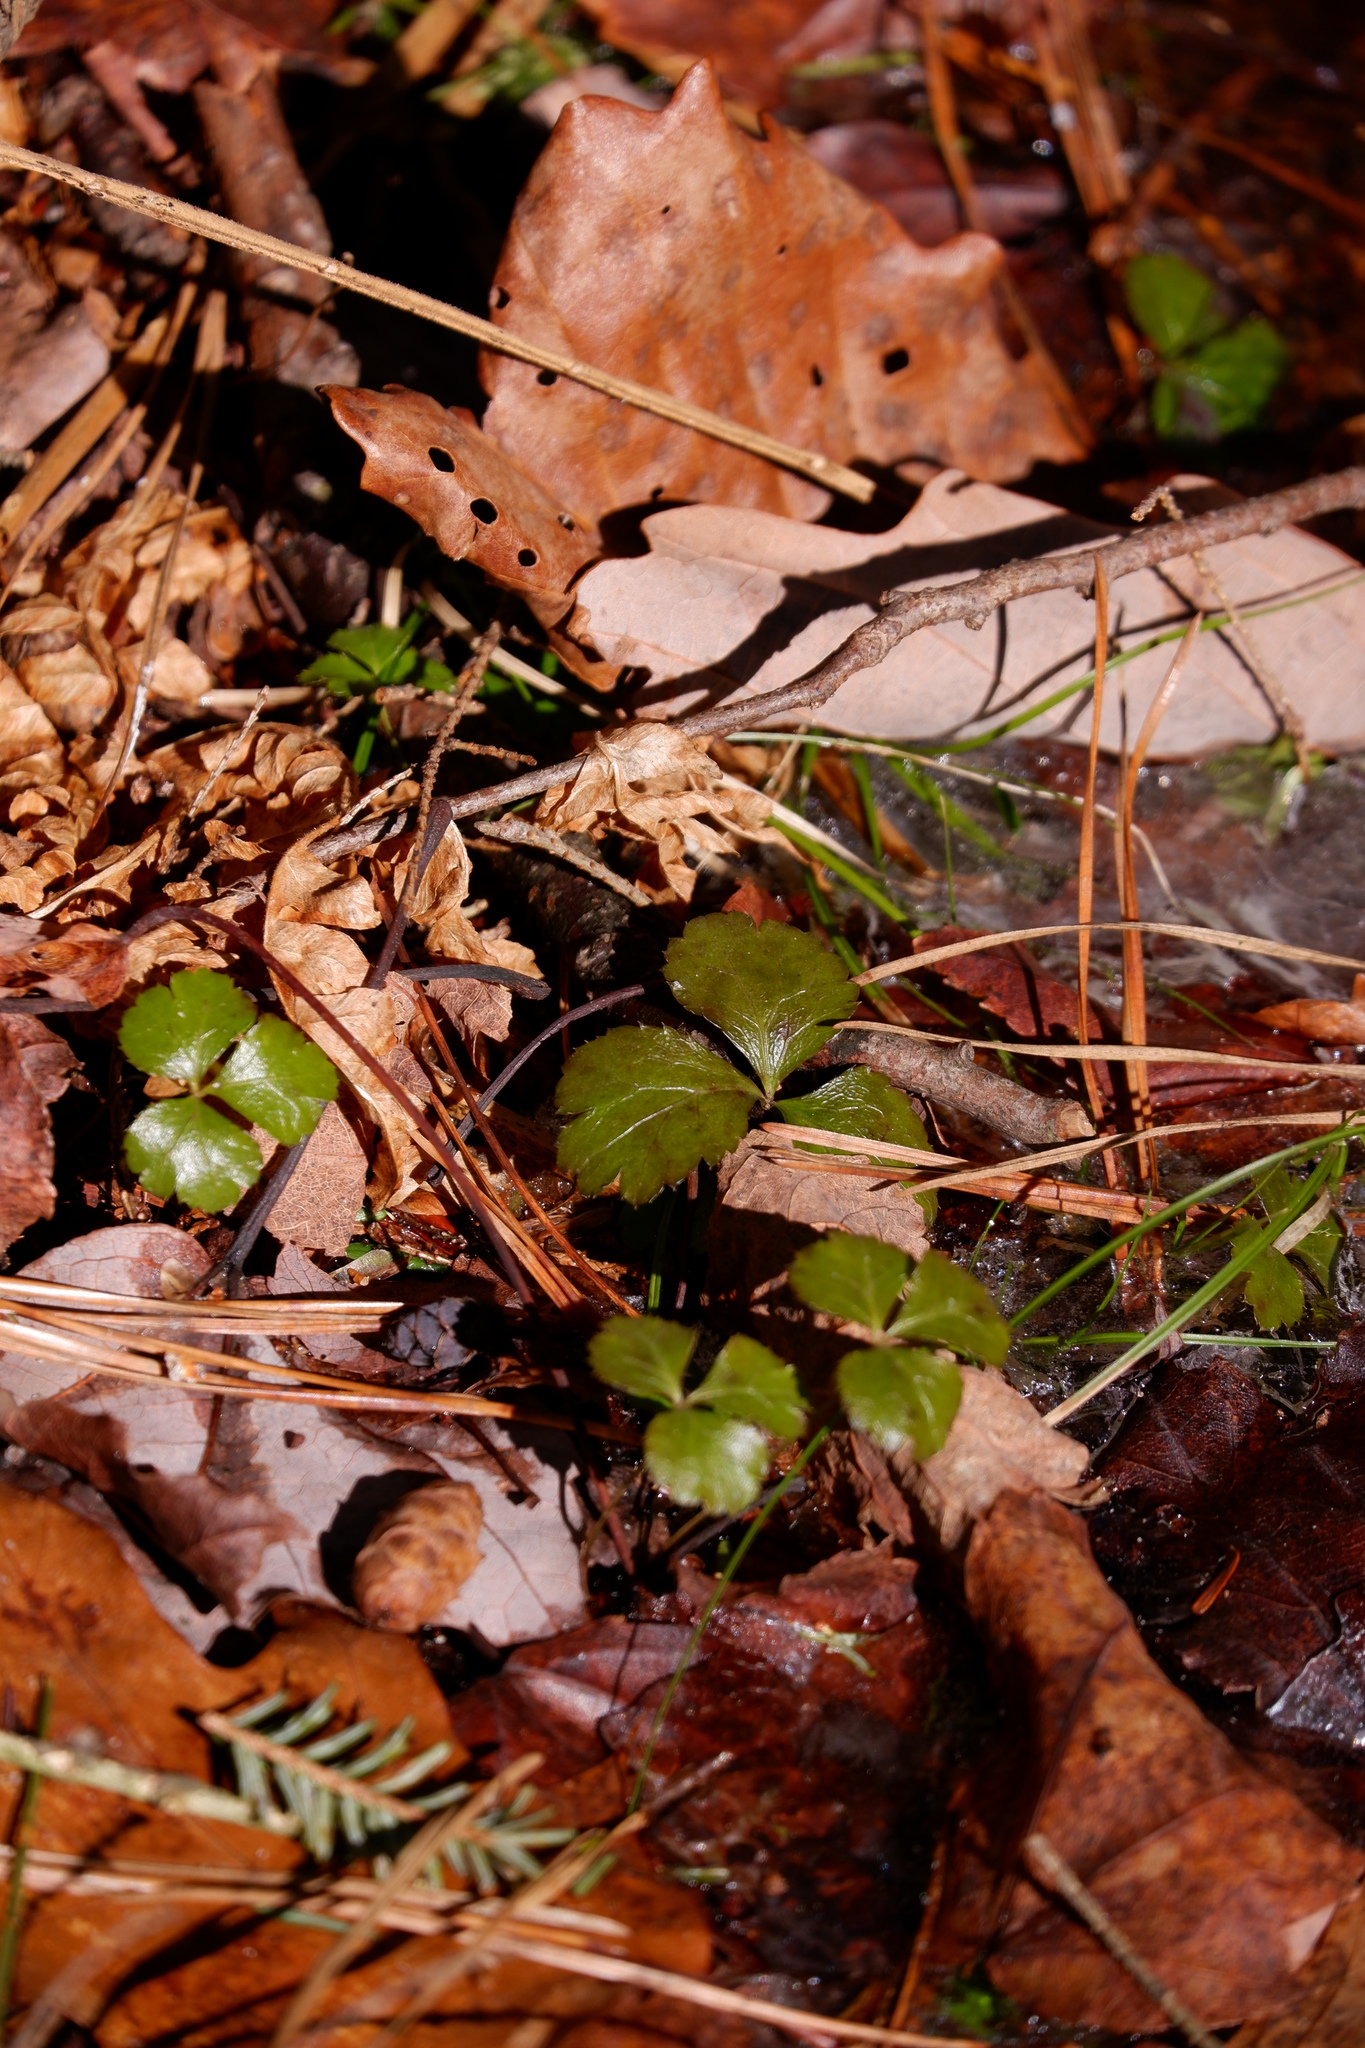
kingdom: Plantae
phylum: Tracheophyta
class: Magnoliopsida
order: Ranunculales
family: Ranunculaceae
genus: Coptis
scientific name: Coptis trifolia
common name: Canker-root
